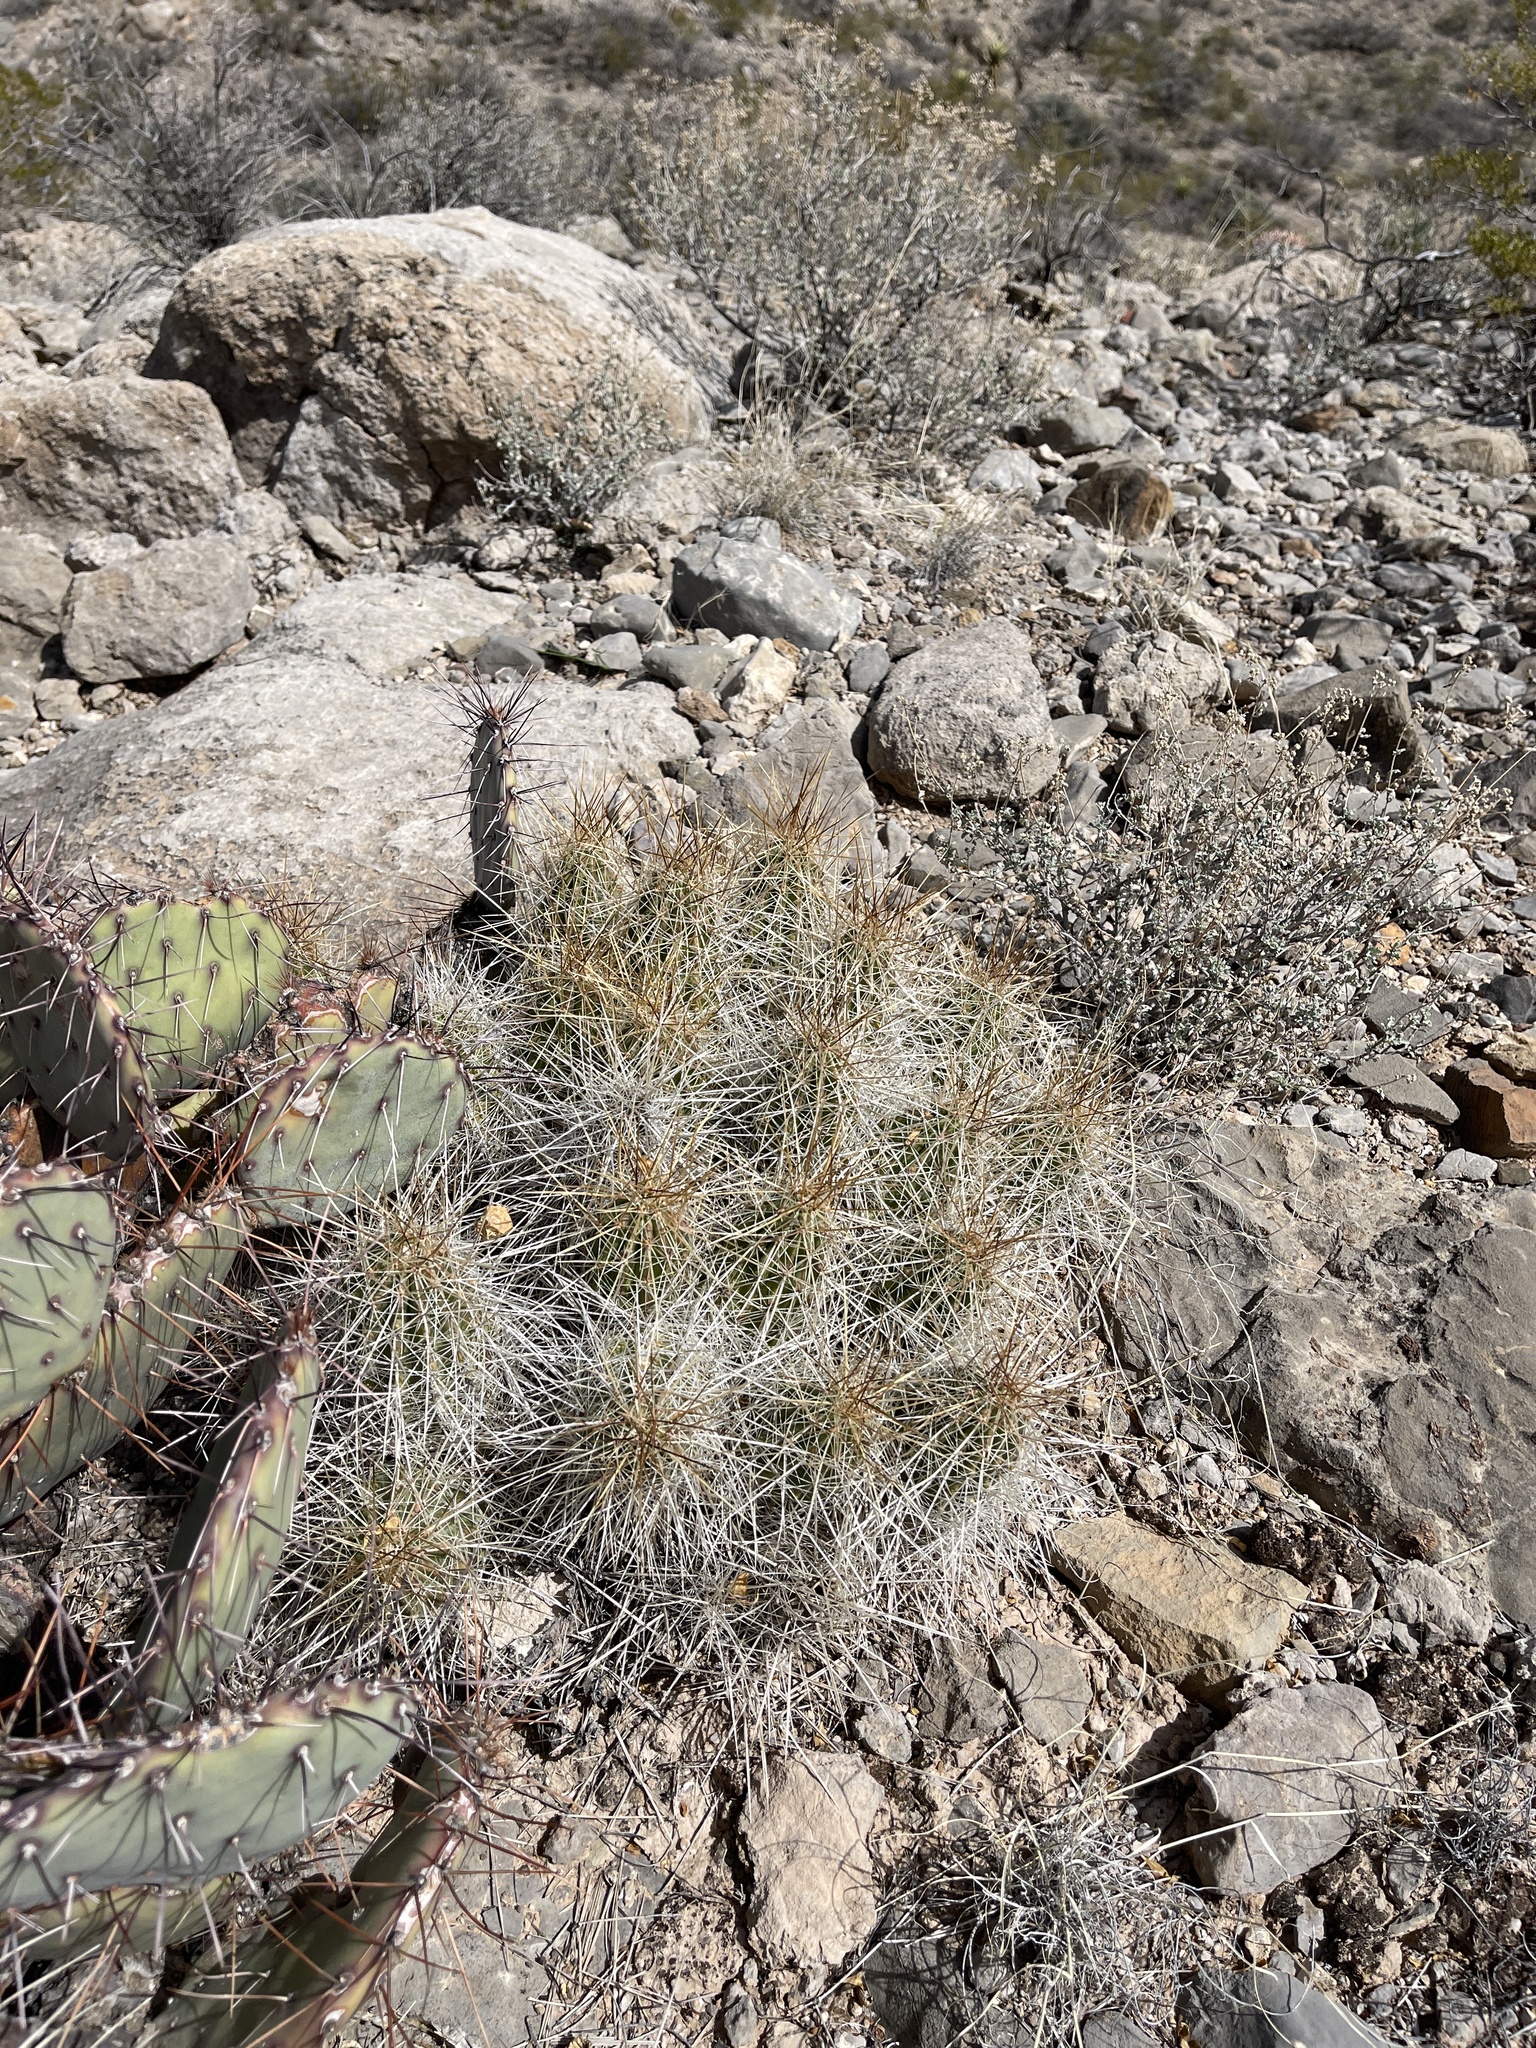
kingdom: Plantae
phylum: Tracheophyta
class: Magnoliopsida
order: Caryophyllales
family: Cactaceae
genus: Echinocereus
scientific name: Echinocereus stramineus
